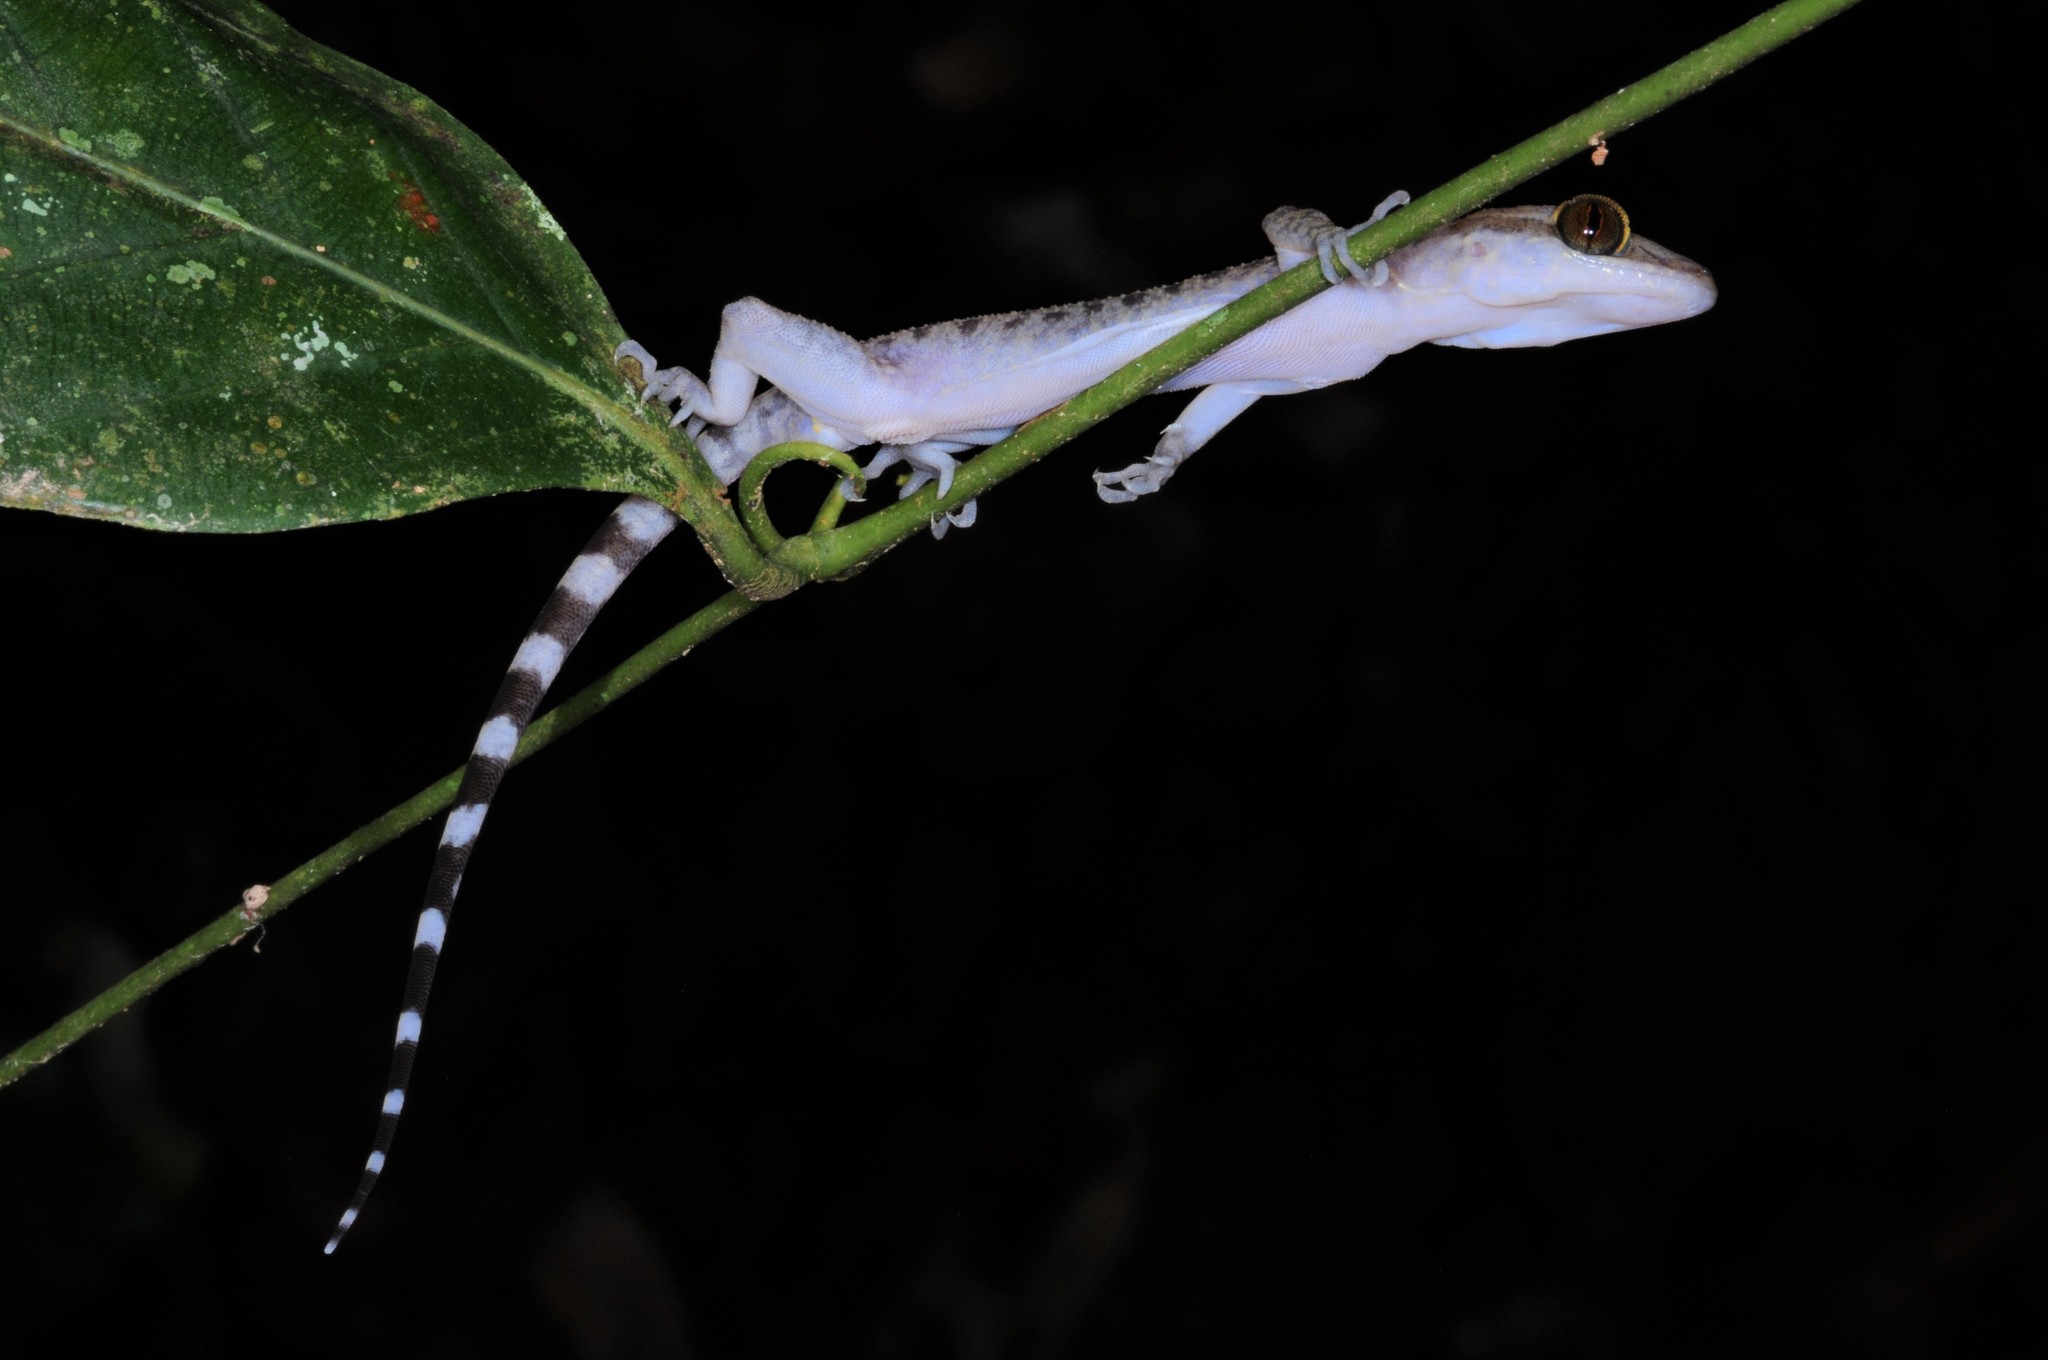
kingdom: Animalia
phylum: Chordata
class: Squamata
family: Gekkonidae
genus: Cyrtodactylus
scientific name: Cyrtodactylus pubisulcus
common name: Inger's bow-fingered gecko
